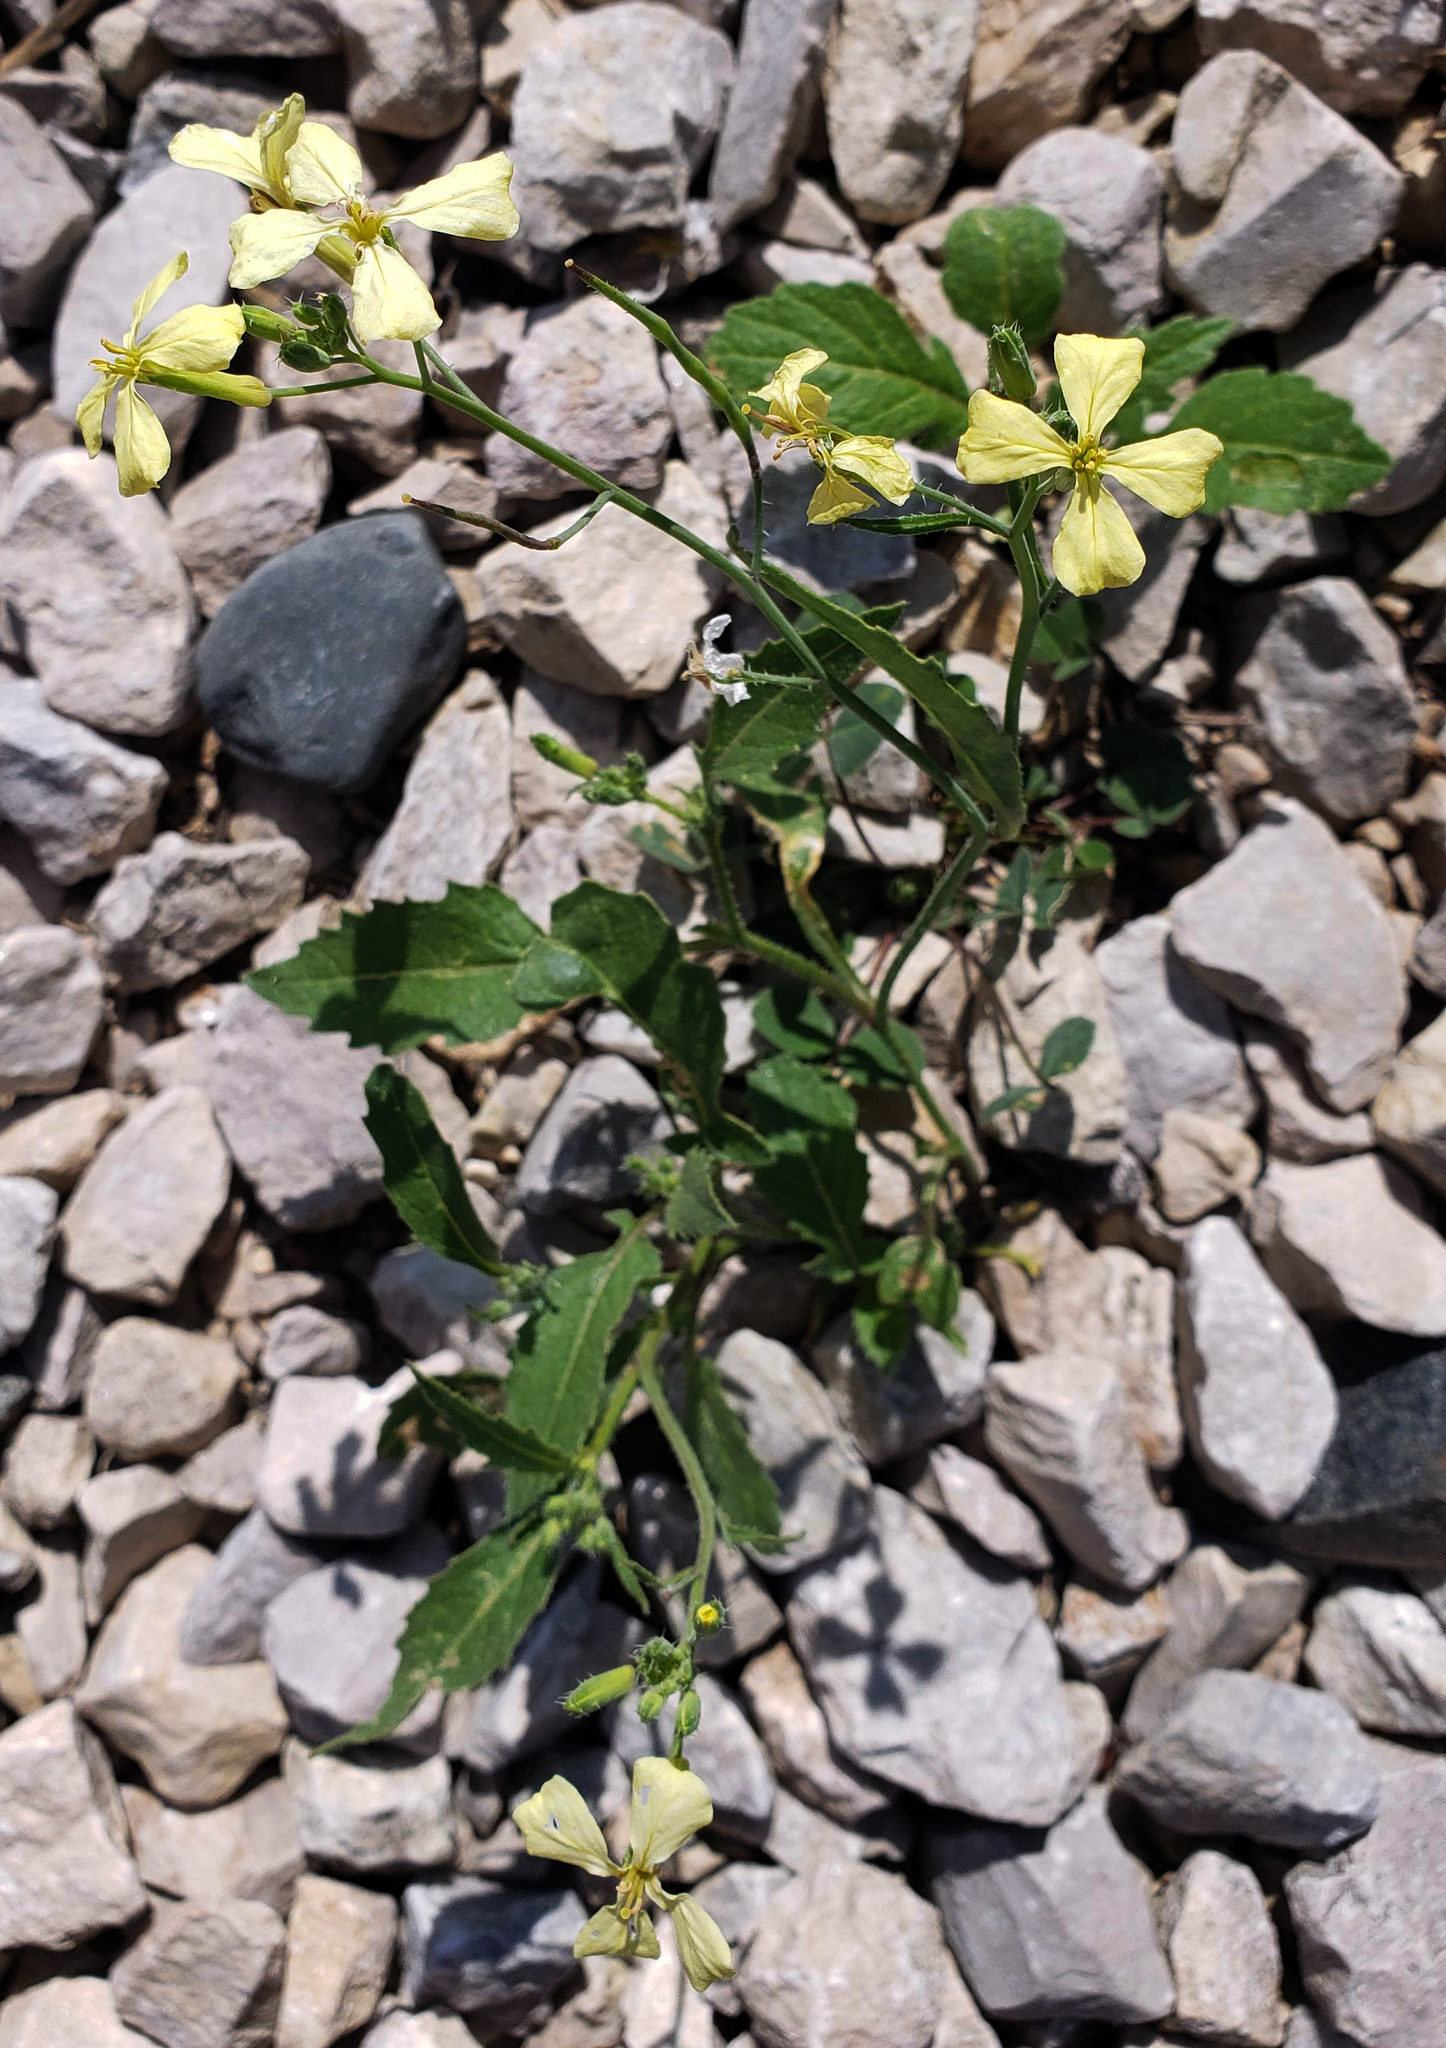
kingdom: Plantae
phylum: Tracheophyta
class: Magnoliopsida
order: Brassicales
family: Brassicaceae
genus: Raphanus
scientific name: Raphanus raphanistrum
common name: Wild radish
